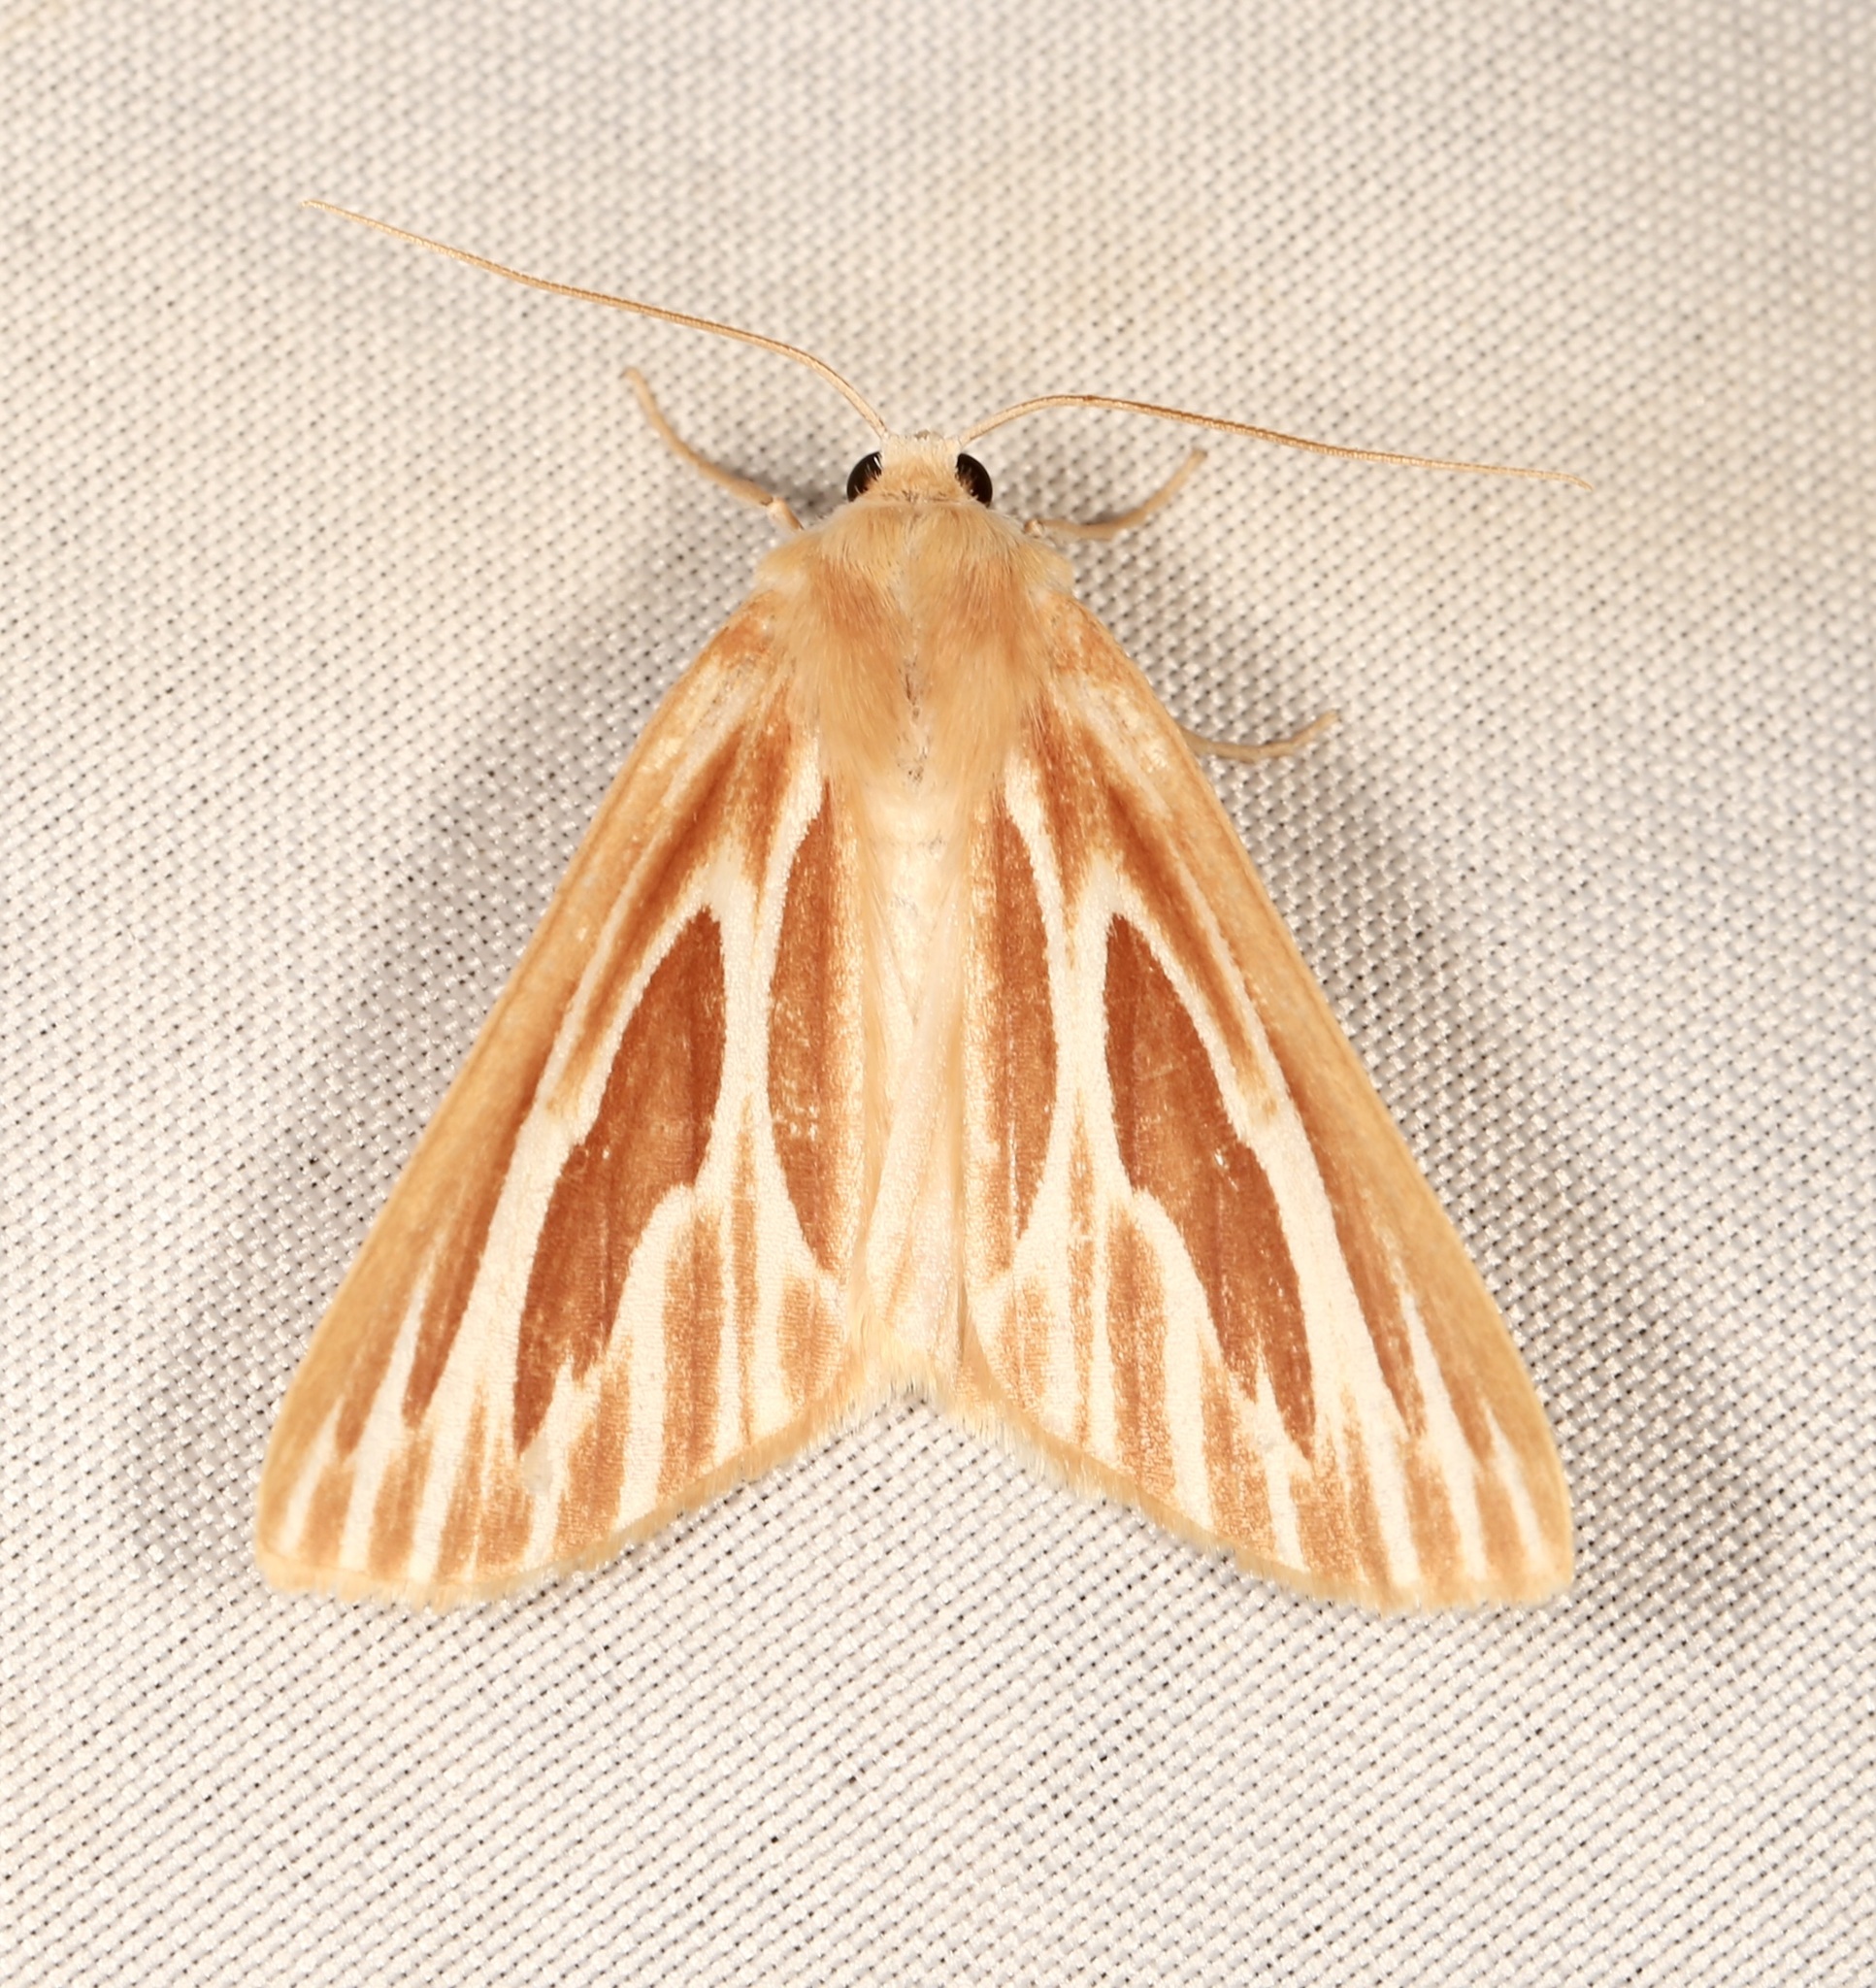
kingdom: Animalia
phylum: Arthropoda
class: Insecta
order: Lepidoptera
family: Geometridae
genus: Sabulodes
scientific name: Sabulodes niveostriata
